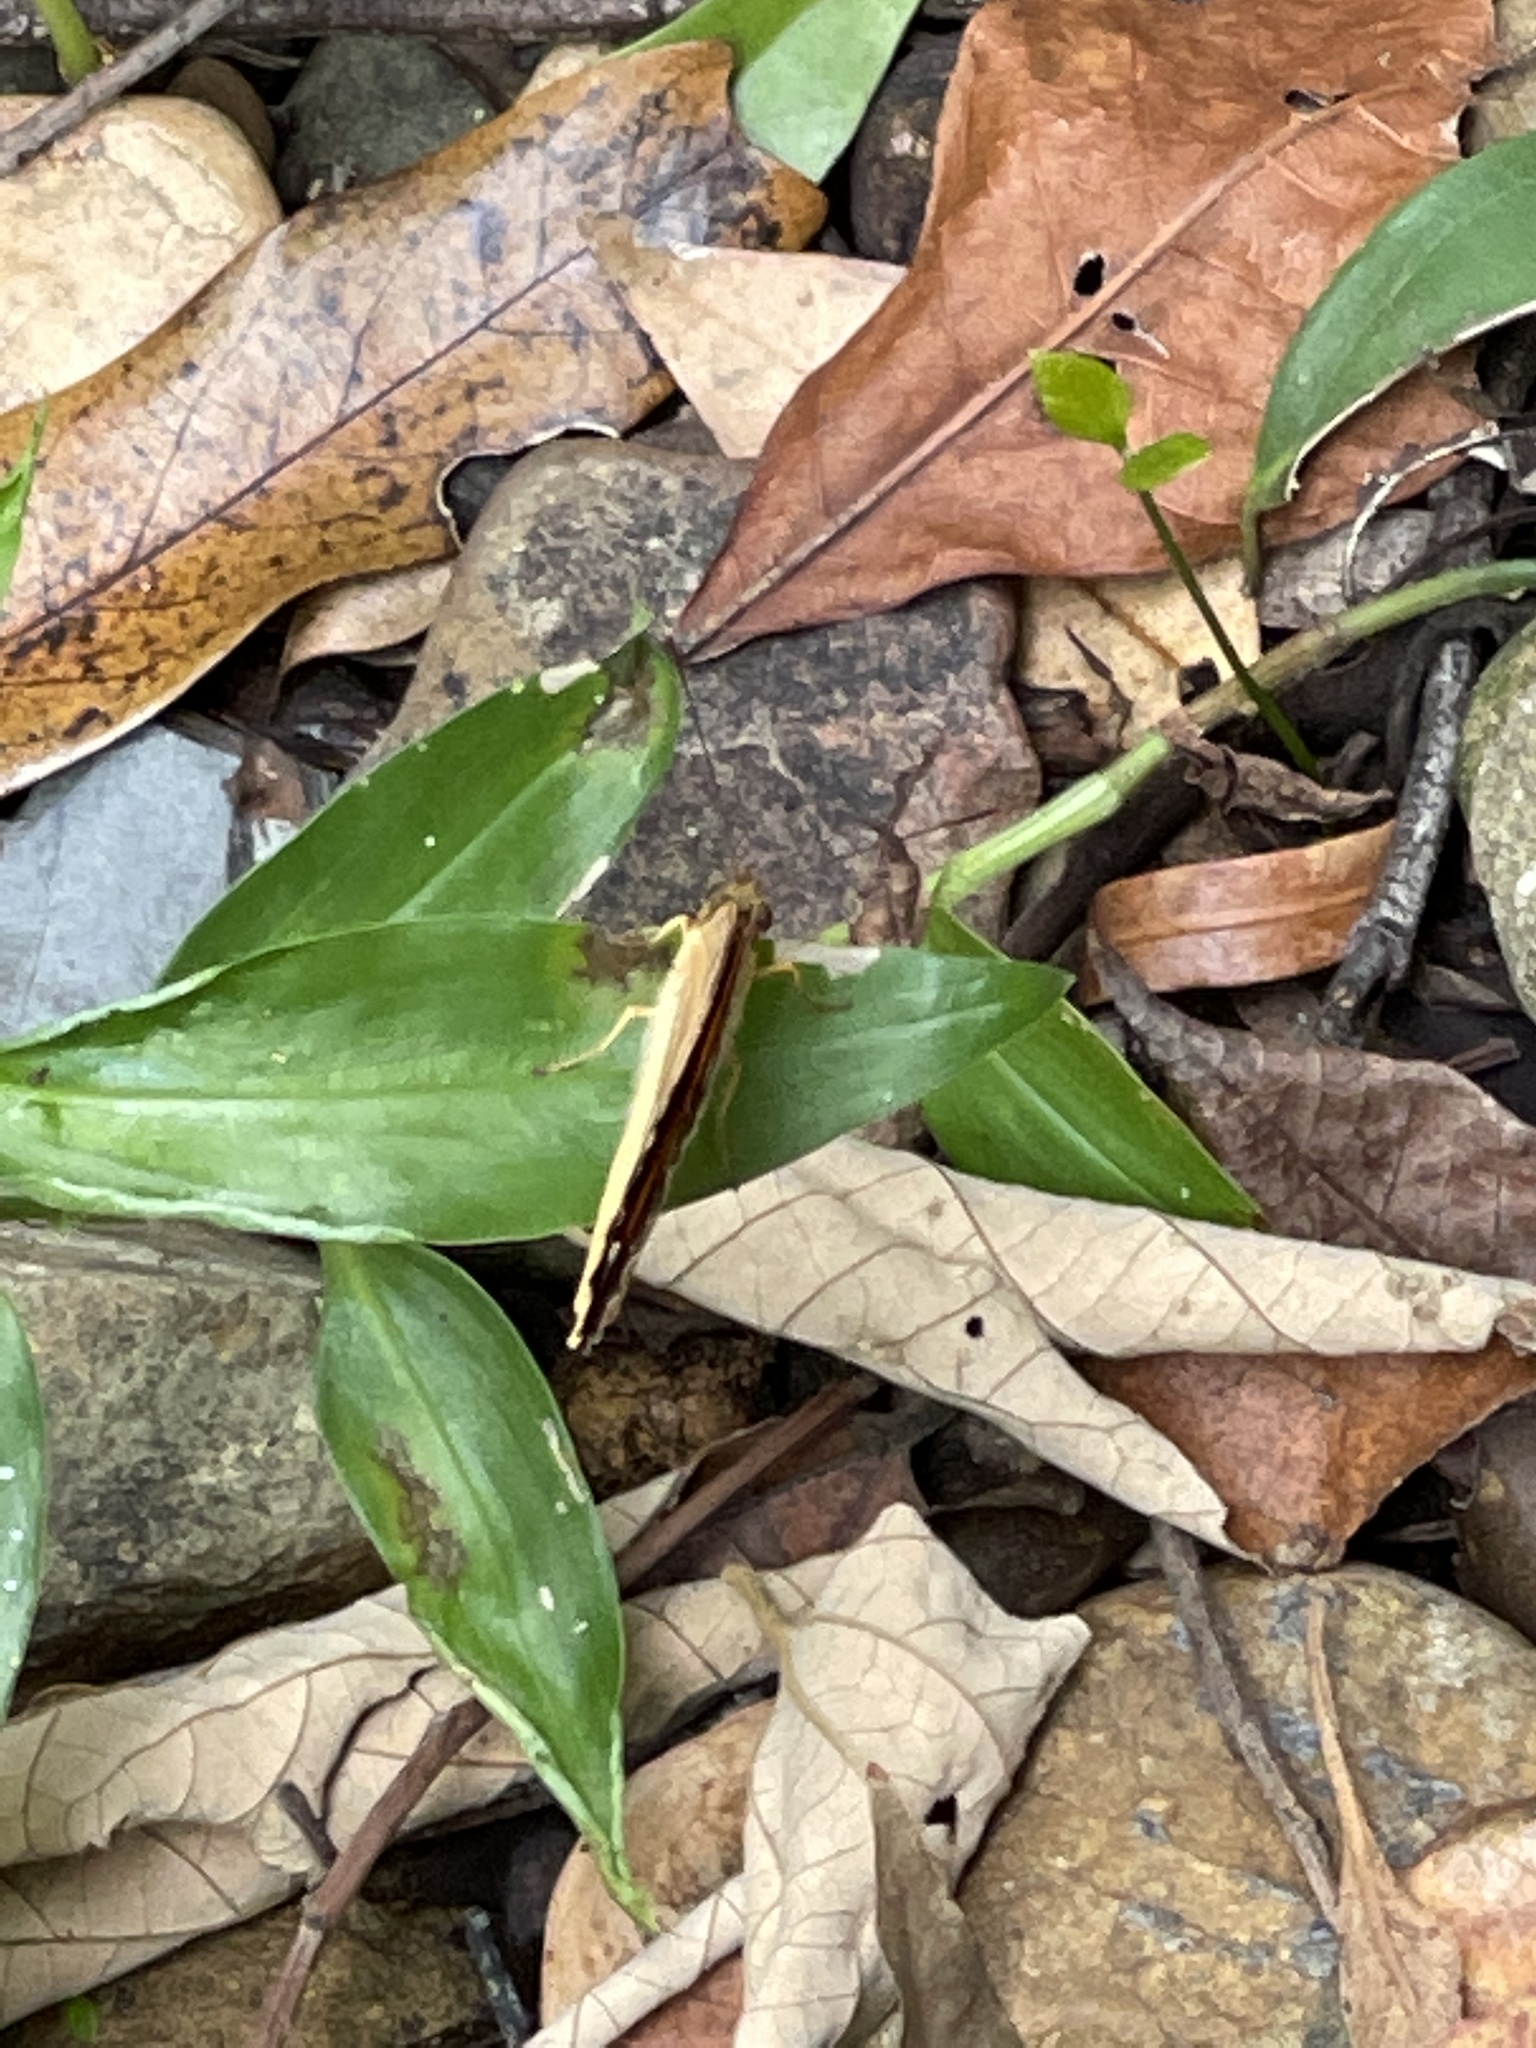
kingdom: Animalia
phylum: Arthropoda
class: Insecta
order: Lepidoptera
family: Nymphalidae
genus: Cupha
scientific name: Cupha prosope
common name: Bordered rustic
